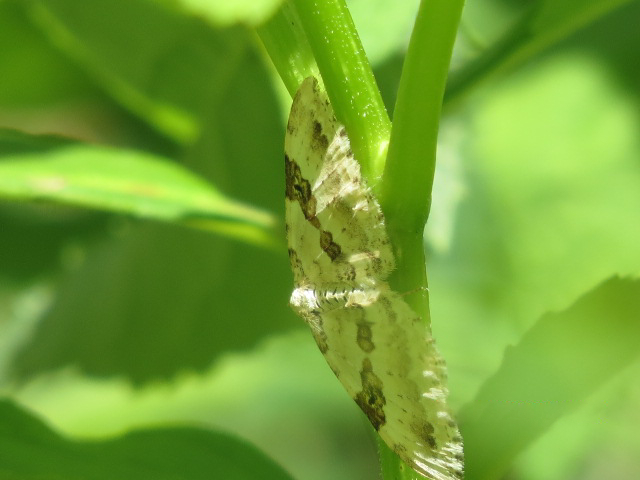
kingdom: Animalia
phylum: Arthropoda
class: Insecta
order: Lepidoptera
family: Geometridae
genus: Xanthorhoe
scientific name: Xanthorhoe montanata
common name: Silver-ground carpet
